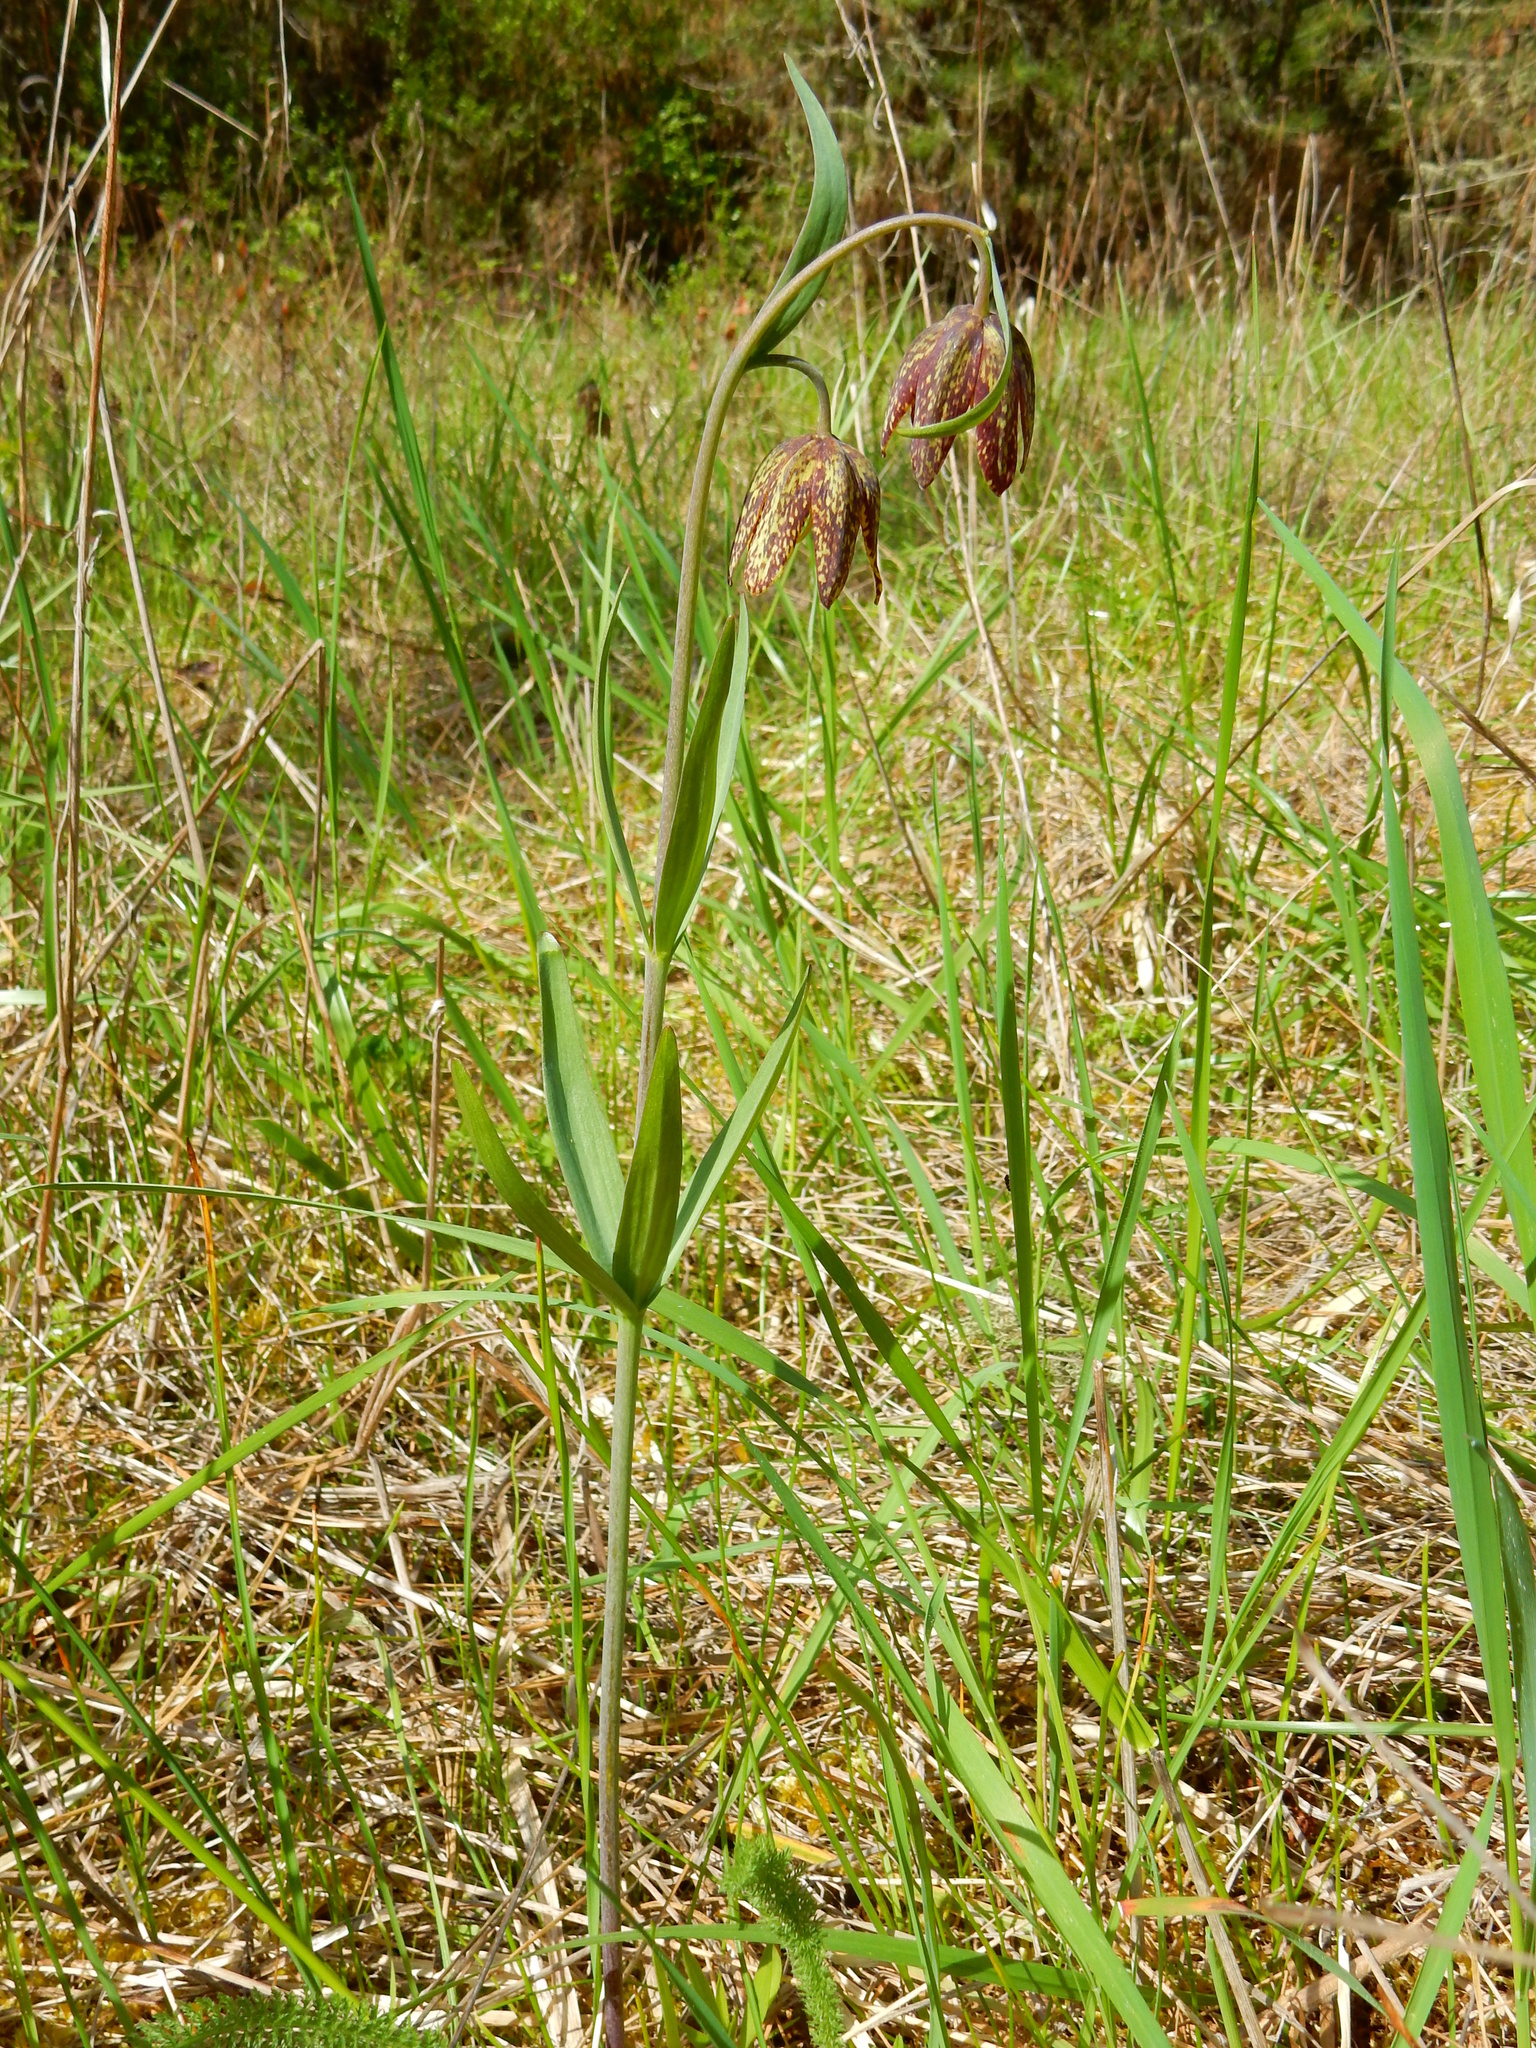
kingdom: Plantae
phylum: Tracheophyta
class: Liliopsida
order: Liliales
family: Liliaceae
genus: Fritillaria
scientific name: Fritillaria affinis
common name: Ojai fritillary
